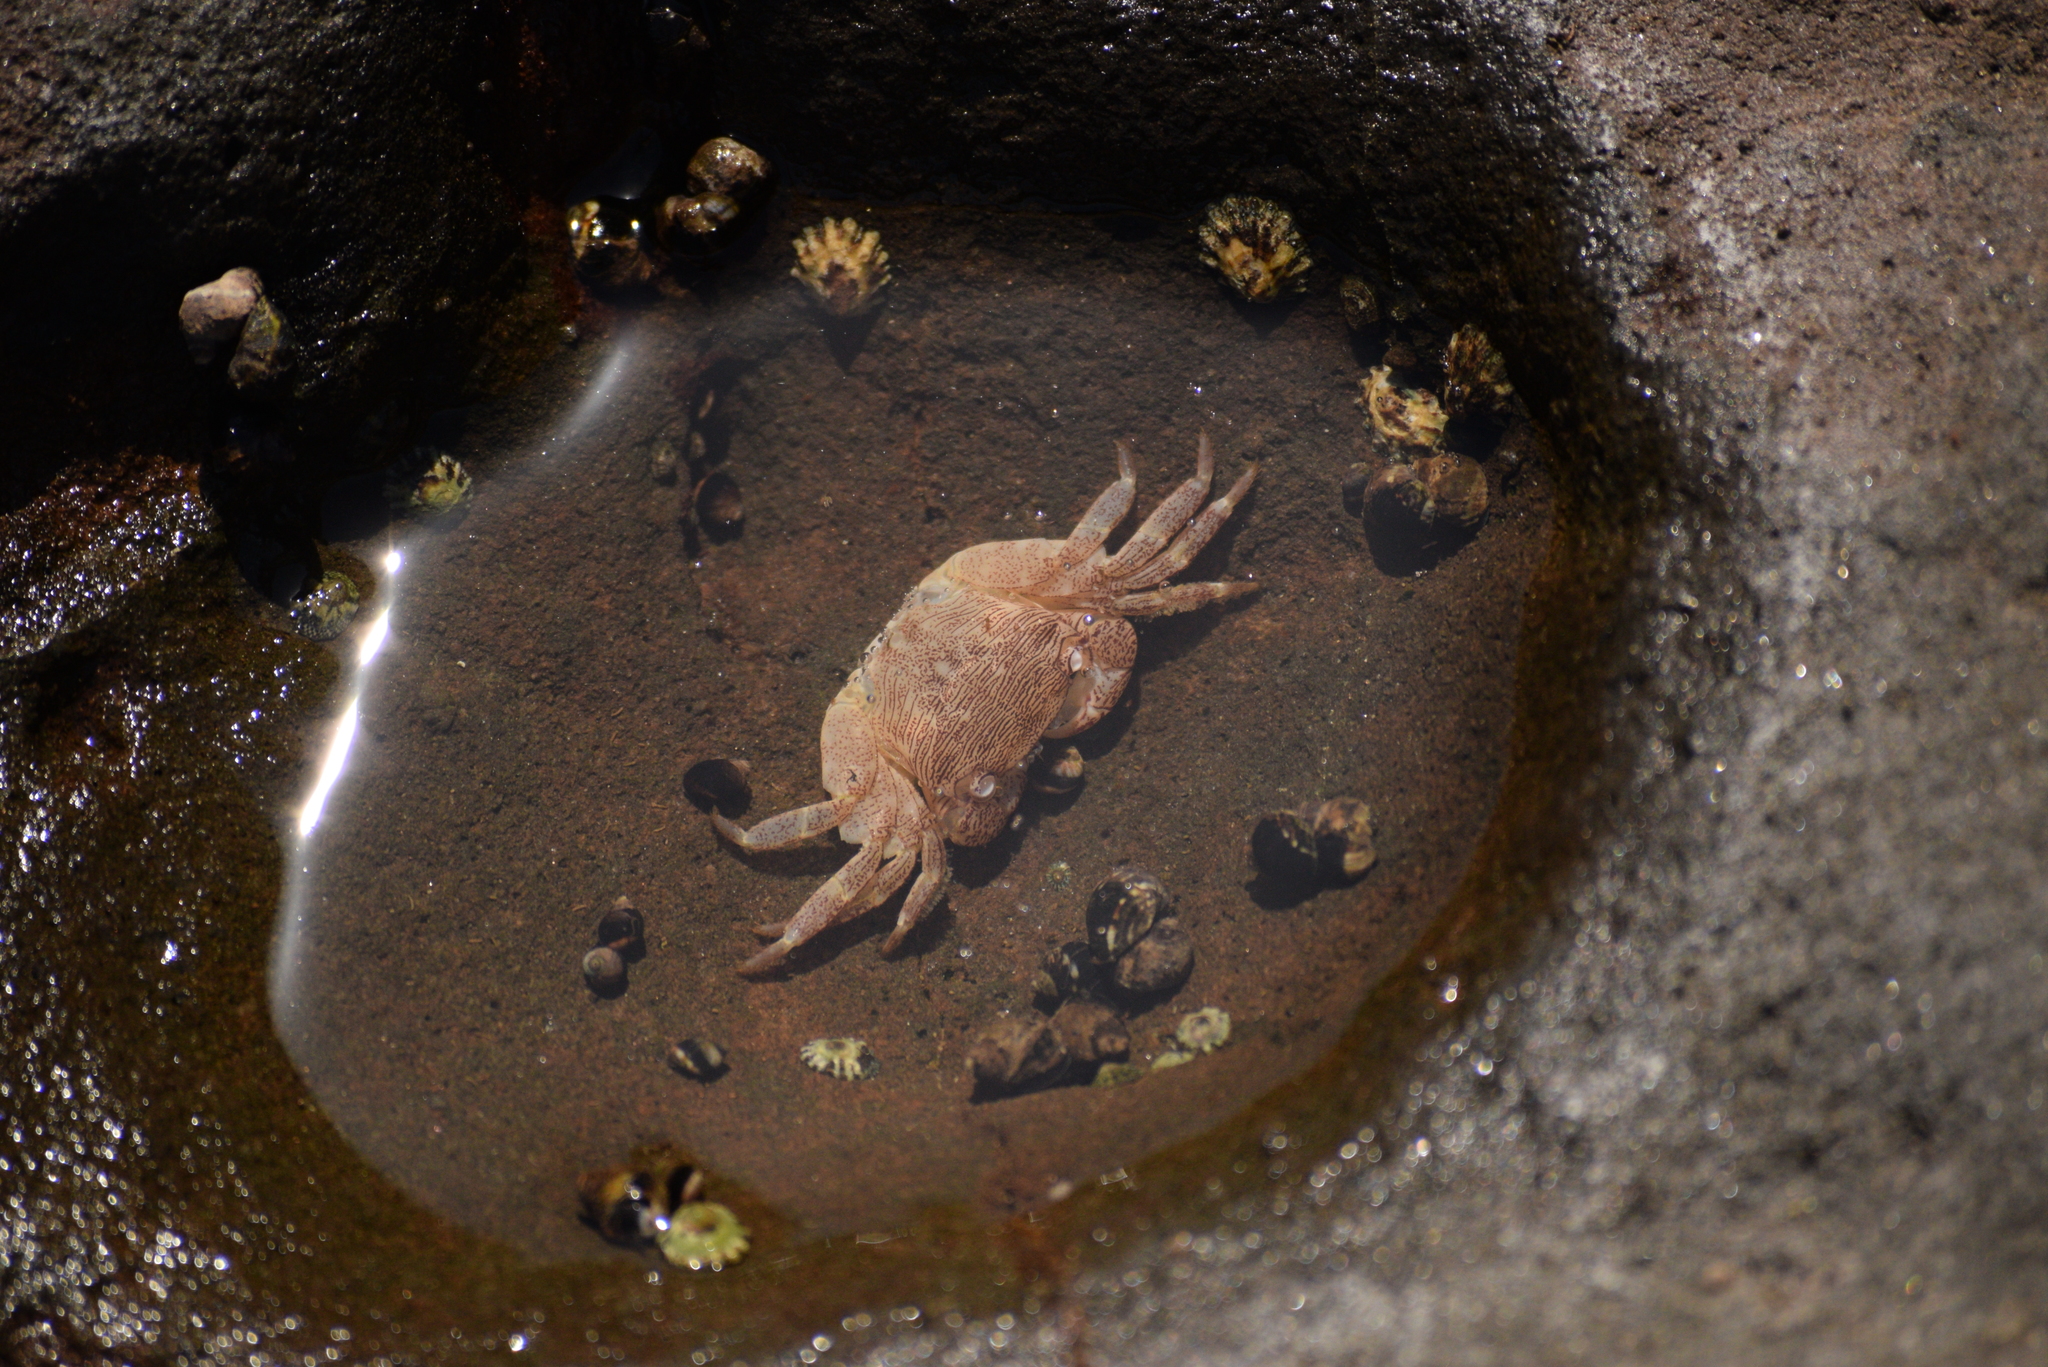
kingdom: Animalia
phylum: Arthropoda
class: Malacostraca
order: Decapoda
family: Grapsidae
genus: Pachygrapsus
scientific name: Pachygrapsus crassipes
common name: Striped shore crab
